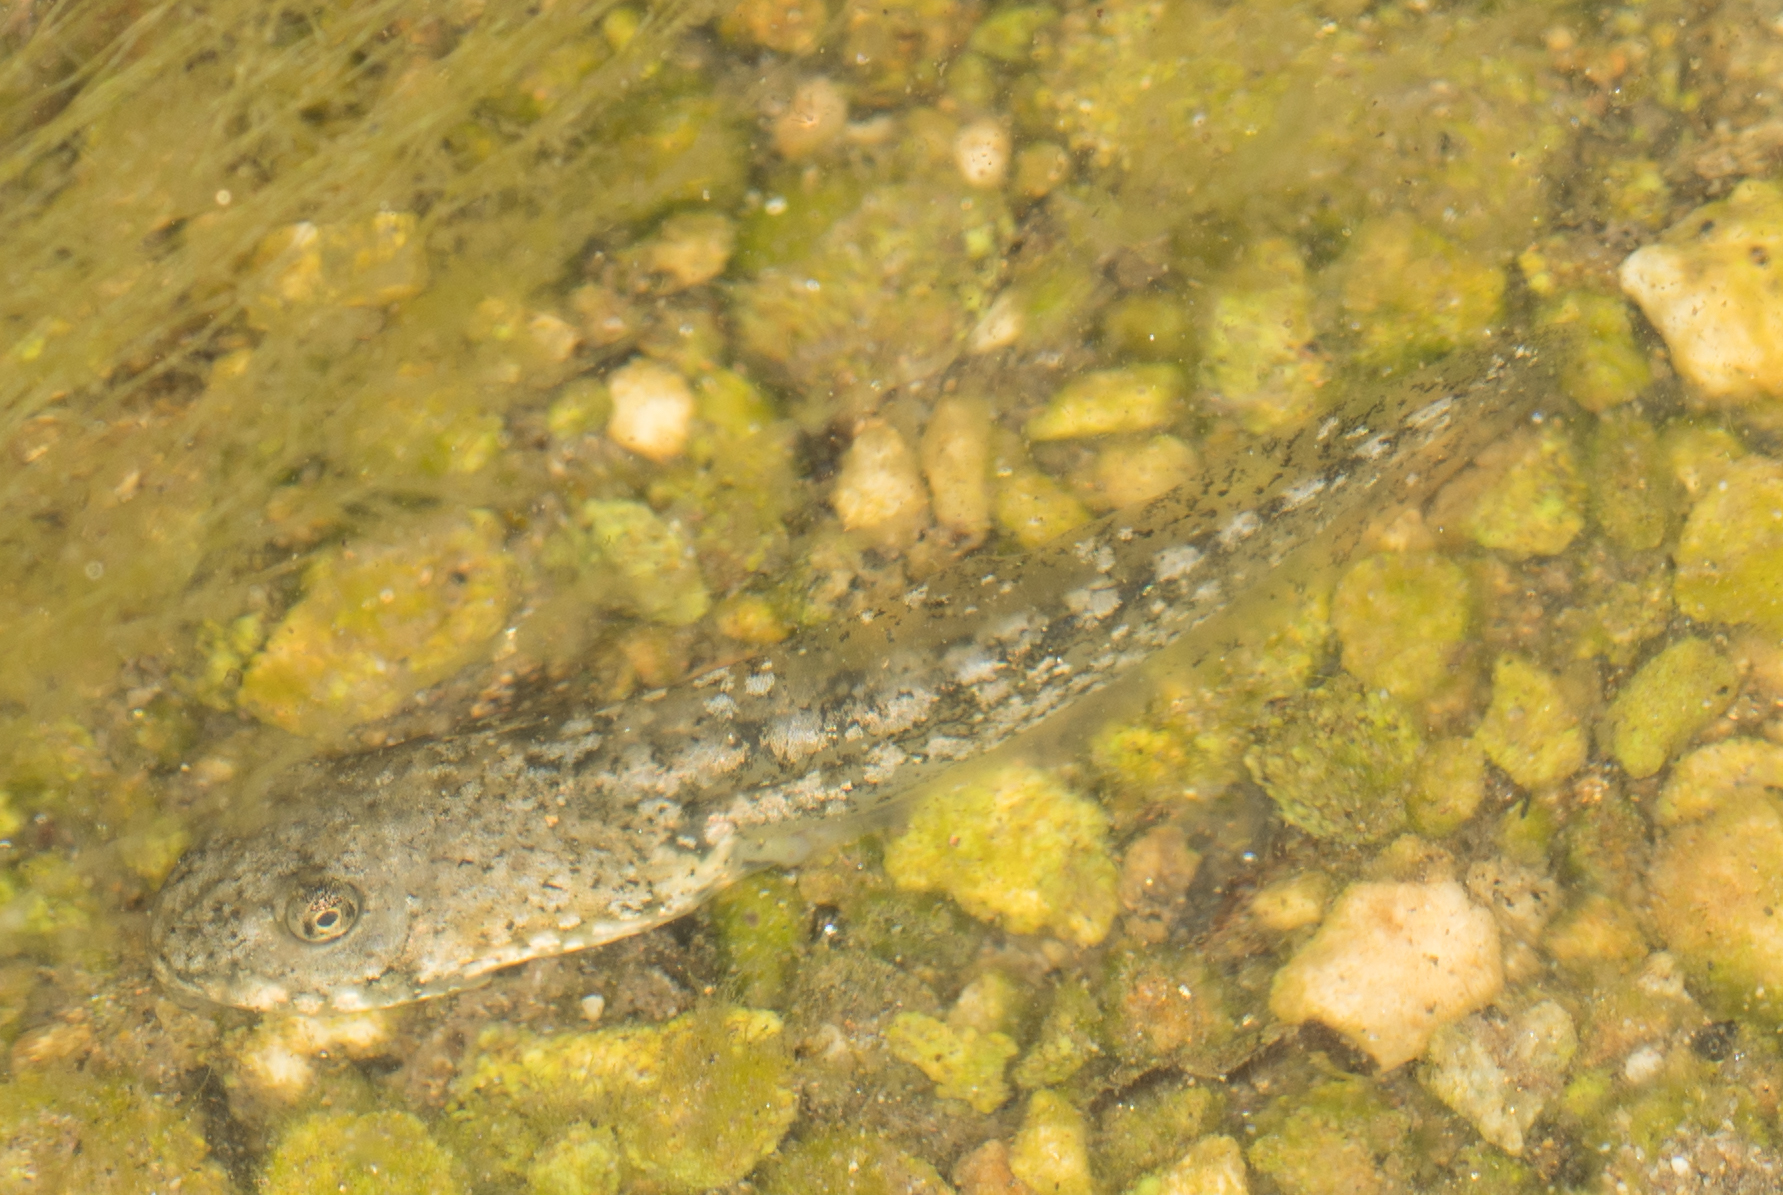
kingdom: Animalia
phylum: Chordata
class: Amphibia
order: Anura
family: Hylidae
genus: Pseudacris
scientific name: Pseudacris cadaverina
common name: California chorus frog
